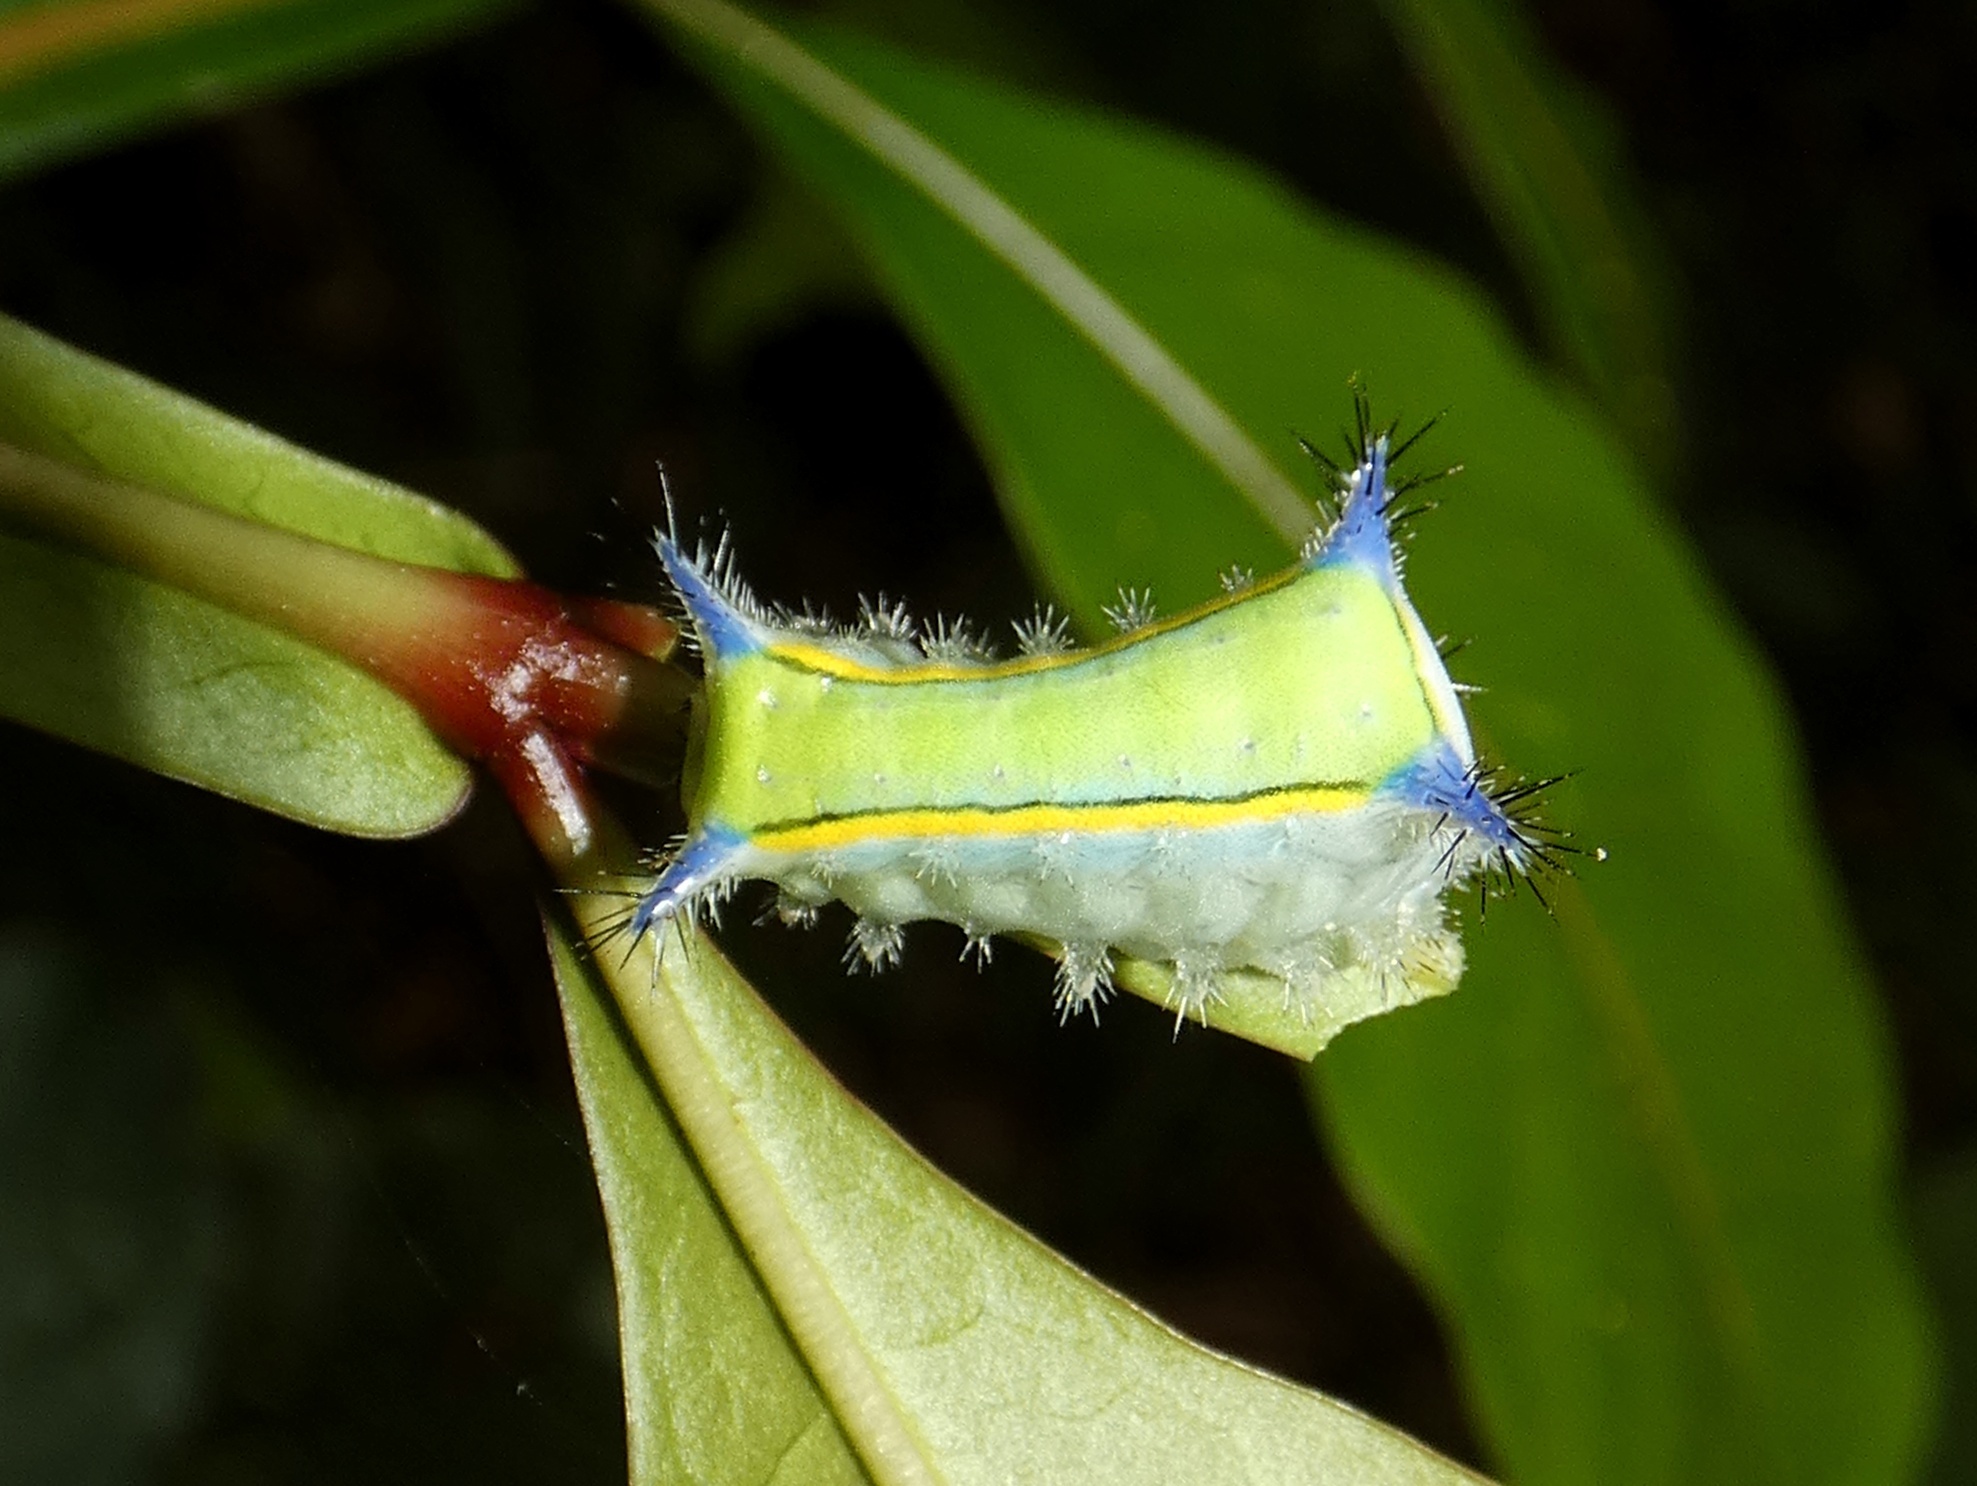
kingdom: Animalia
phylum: Arthropoda
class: Insecta
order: Lepidoptera
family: Limacodidae
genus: Parasa
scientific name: Parasa sandrae
